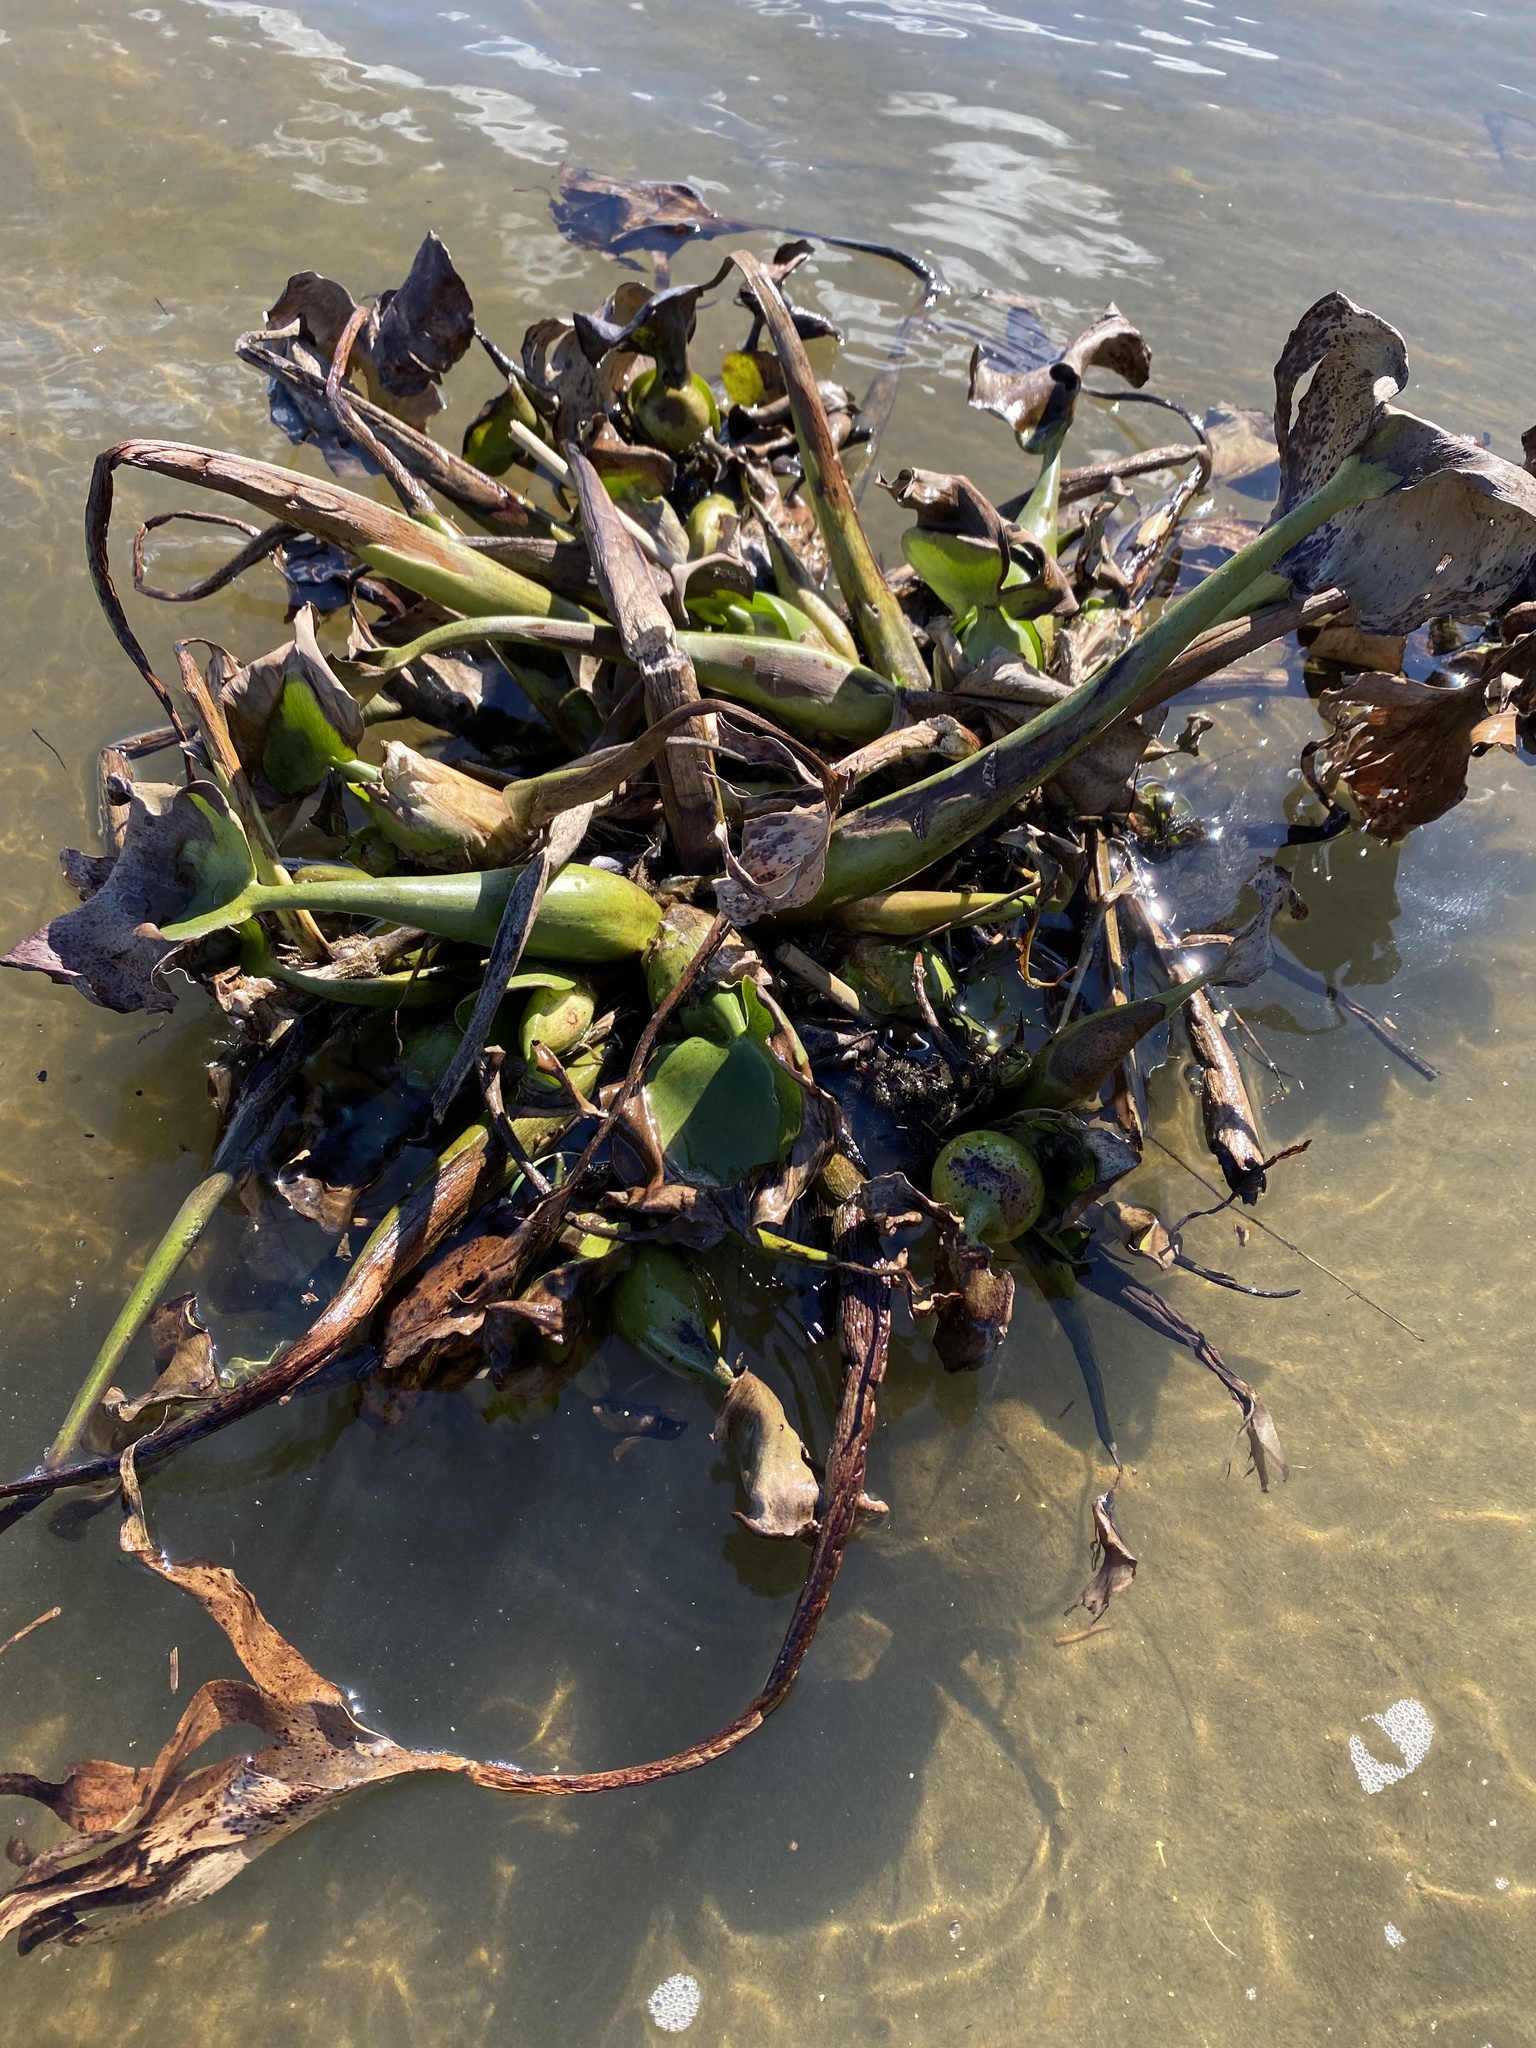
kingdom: Plantae
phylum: Tracheophyta
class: Liliopsida
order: Commelinales
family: Pontederiaceae
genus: Pontederia
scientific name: Pontederia crassipes
